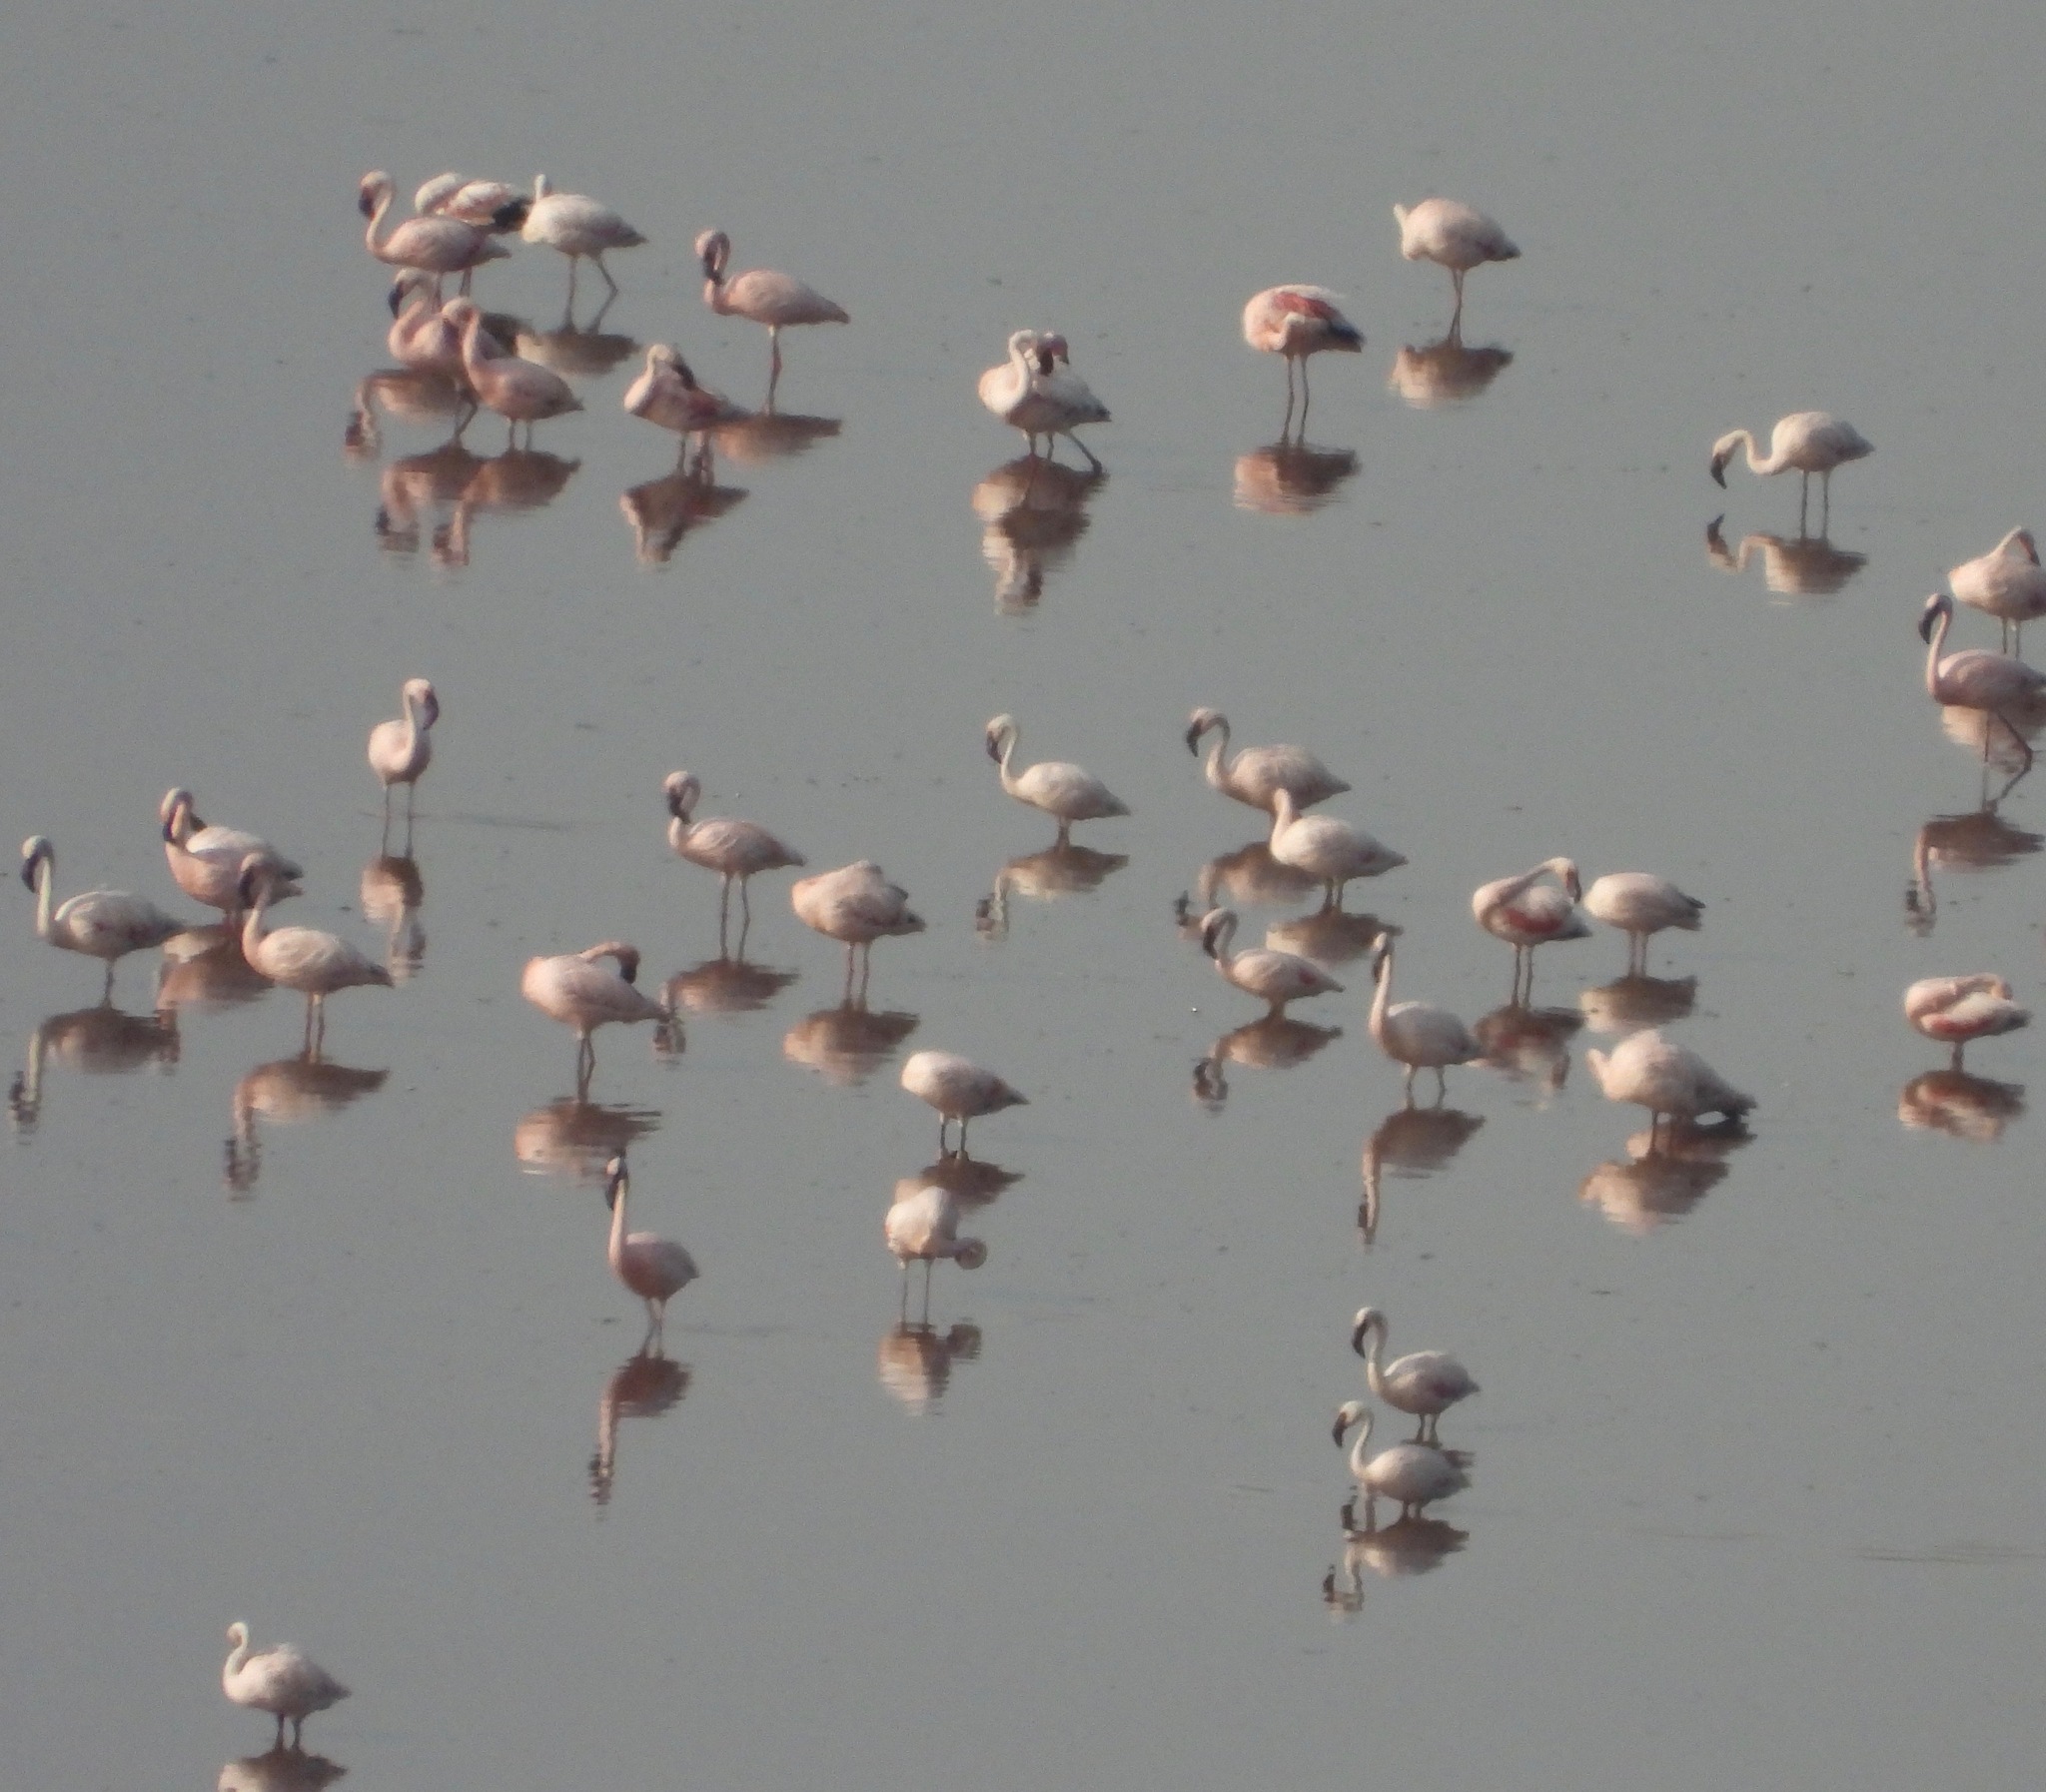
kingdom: Animalia
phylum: Chordata
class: Aves
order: Phoenicopteriformes
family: Phoenicopteridae
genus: Phoeniconaias
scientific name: Phoeniconaias minor
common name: Lesser flamingo
